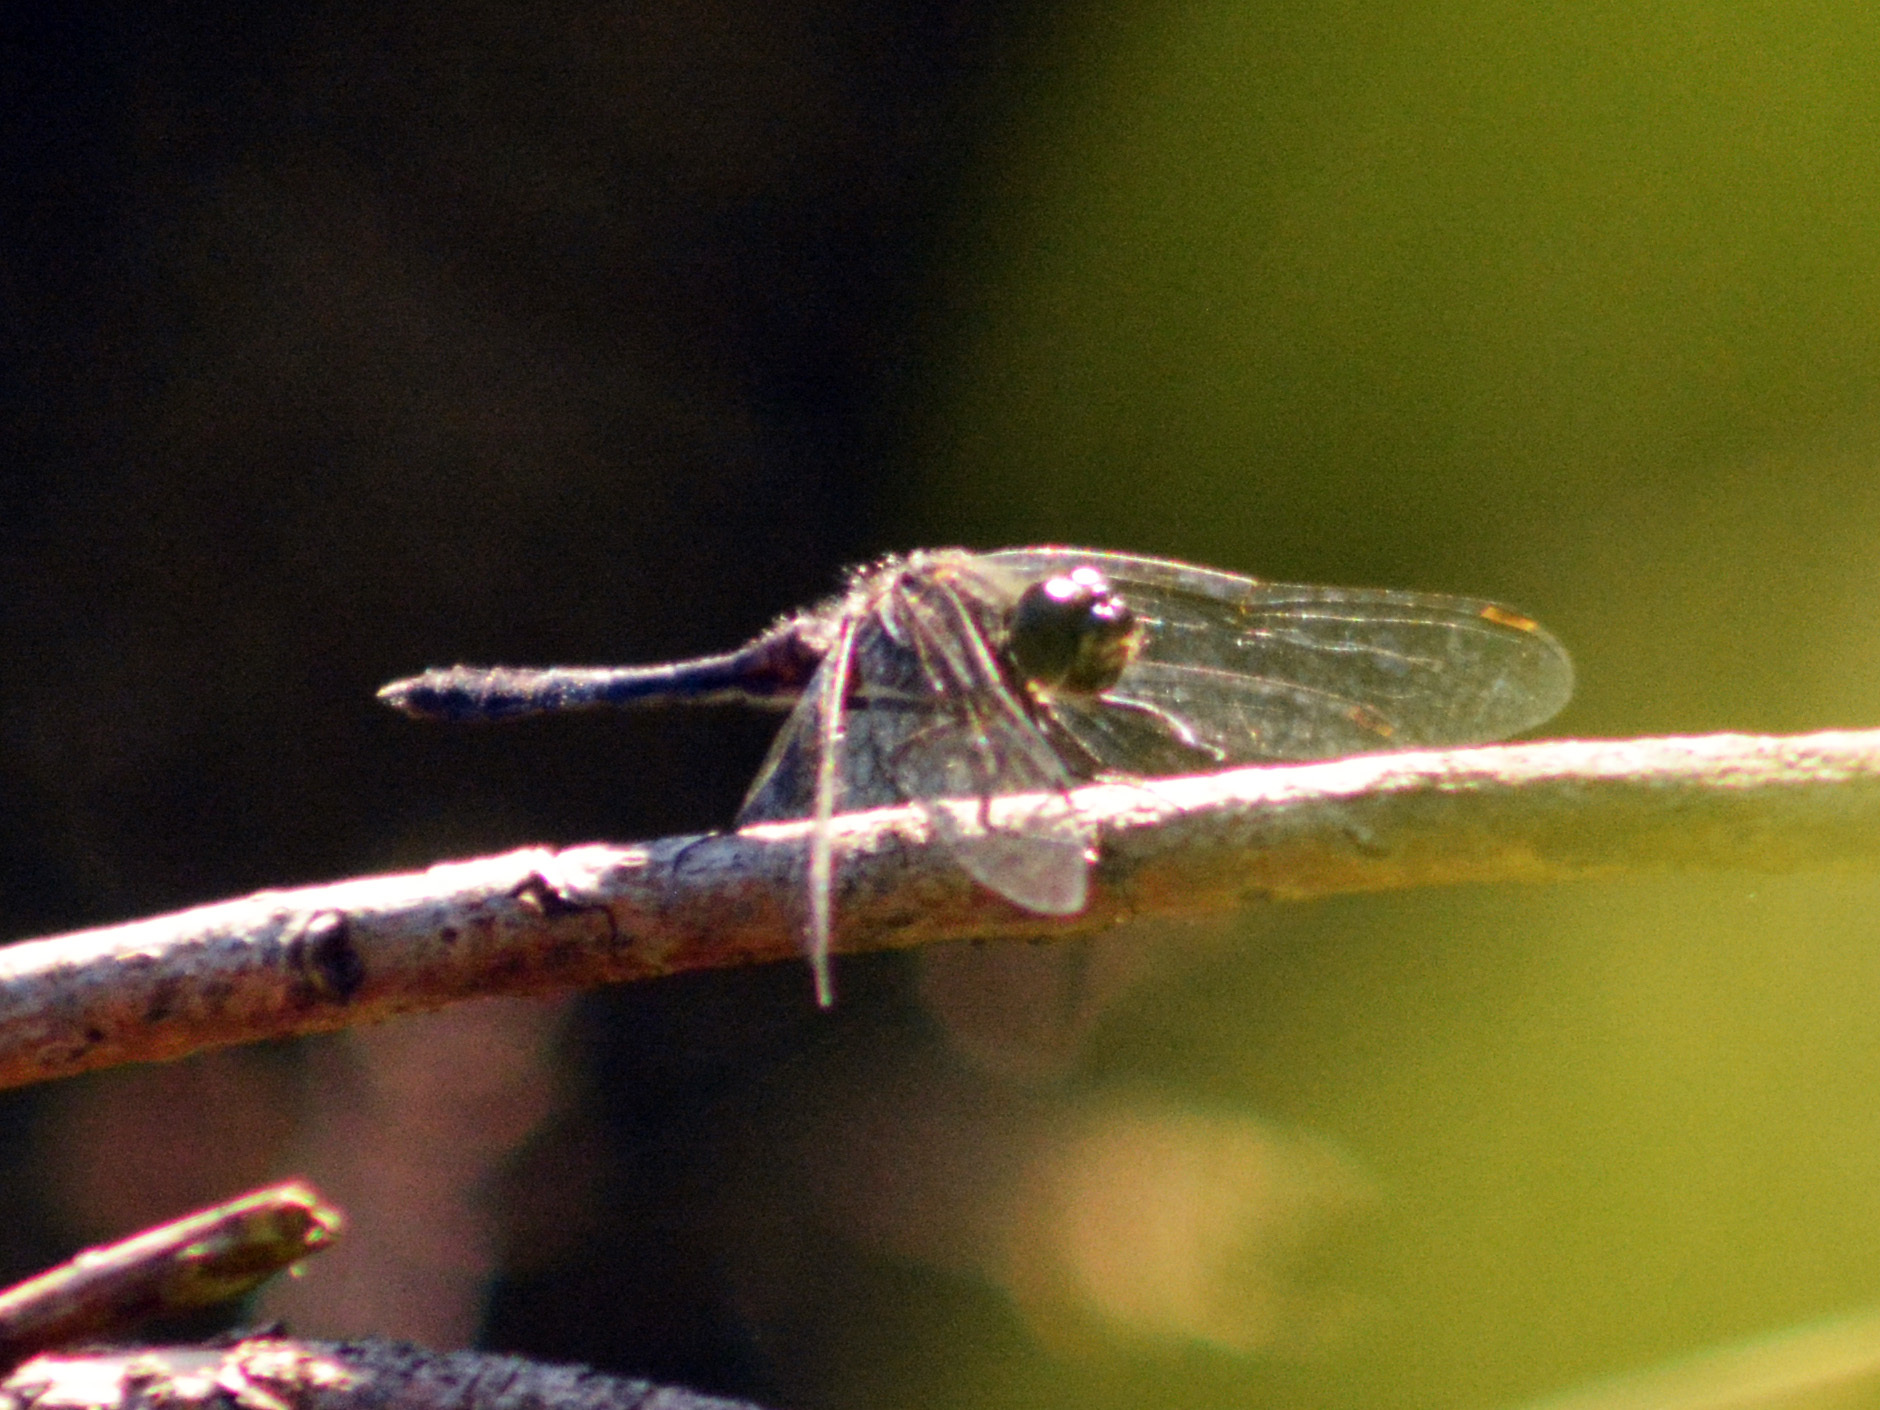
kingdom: Animalia
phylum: Arthropoda
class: Insecta
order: Odonata
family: Libellulidae
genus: Sympetrum
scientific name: Sympetrum danae
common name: Black darter
